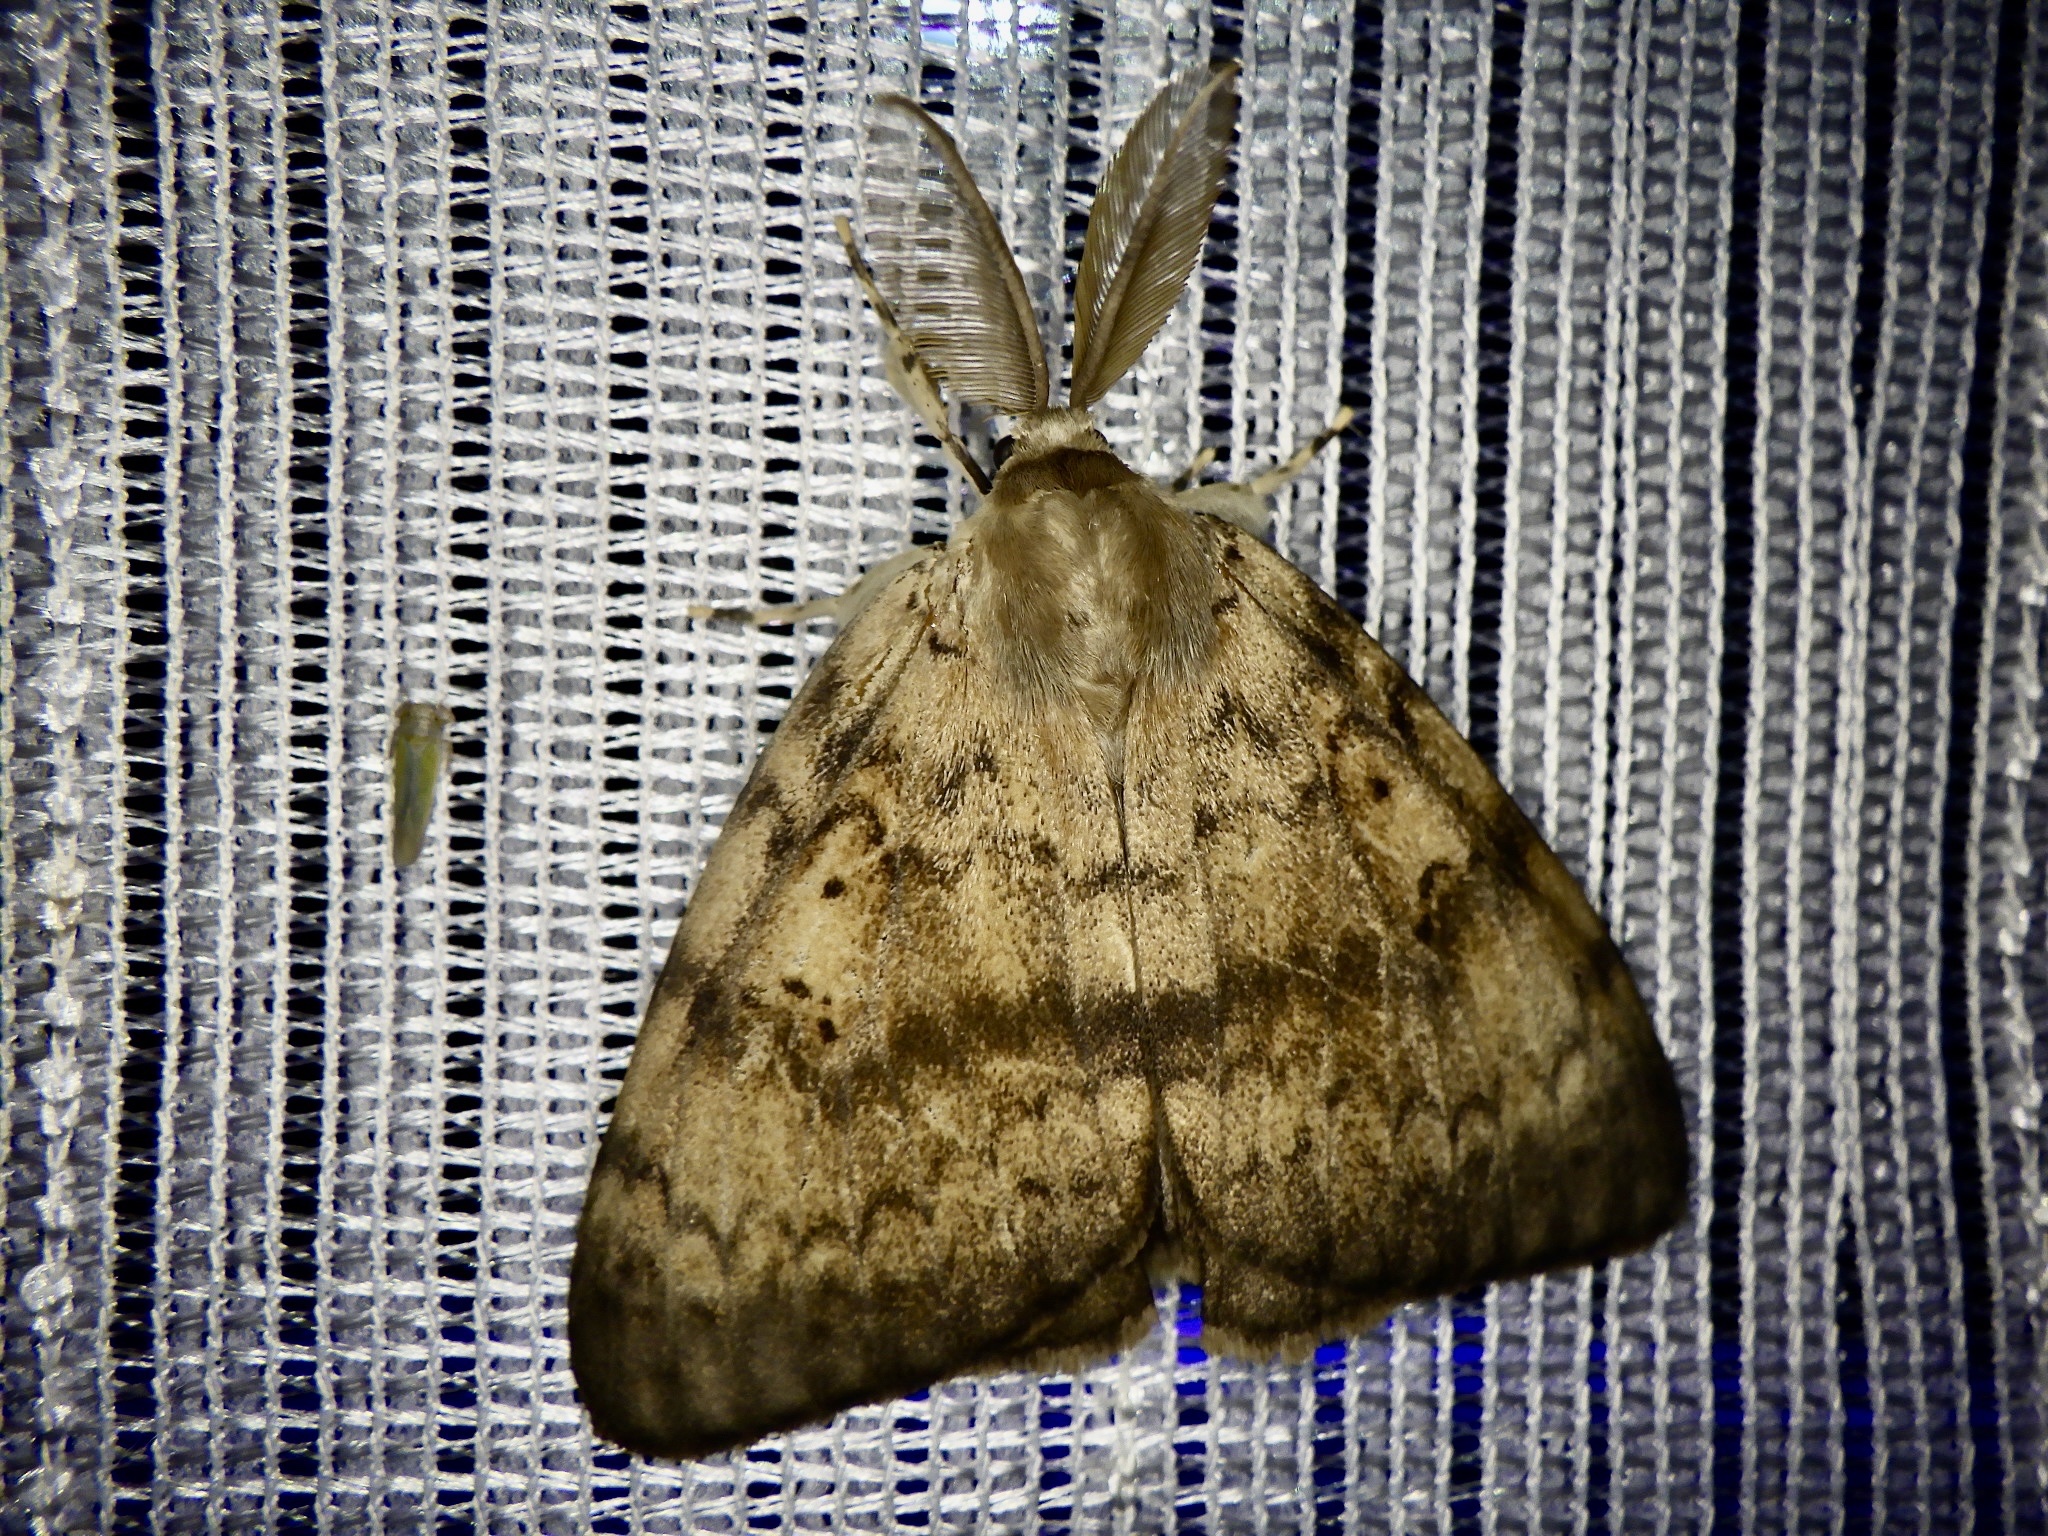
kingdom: Animalia
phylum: Arthropoda
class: Insecta
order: Lepidoptera
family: Erebidae
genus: Lymantria
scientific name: Lymantria dispar
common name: Gypsy moth
